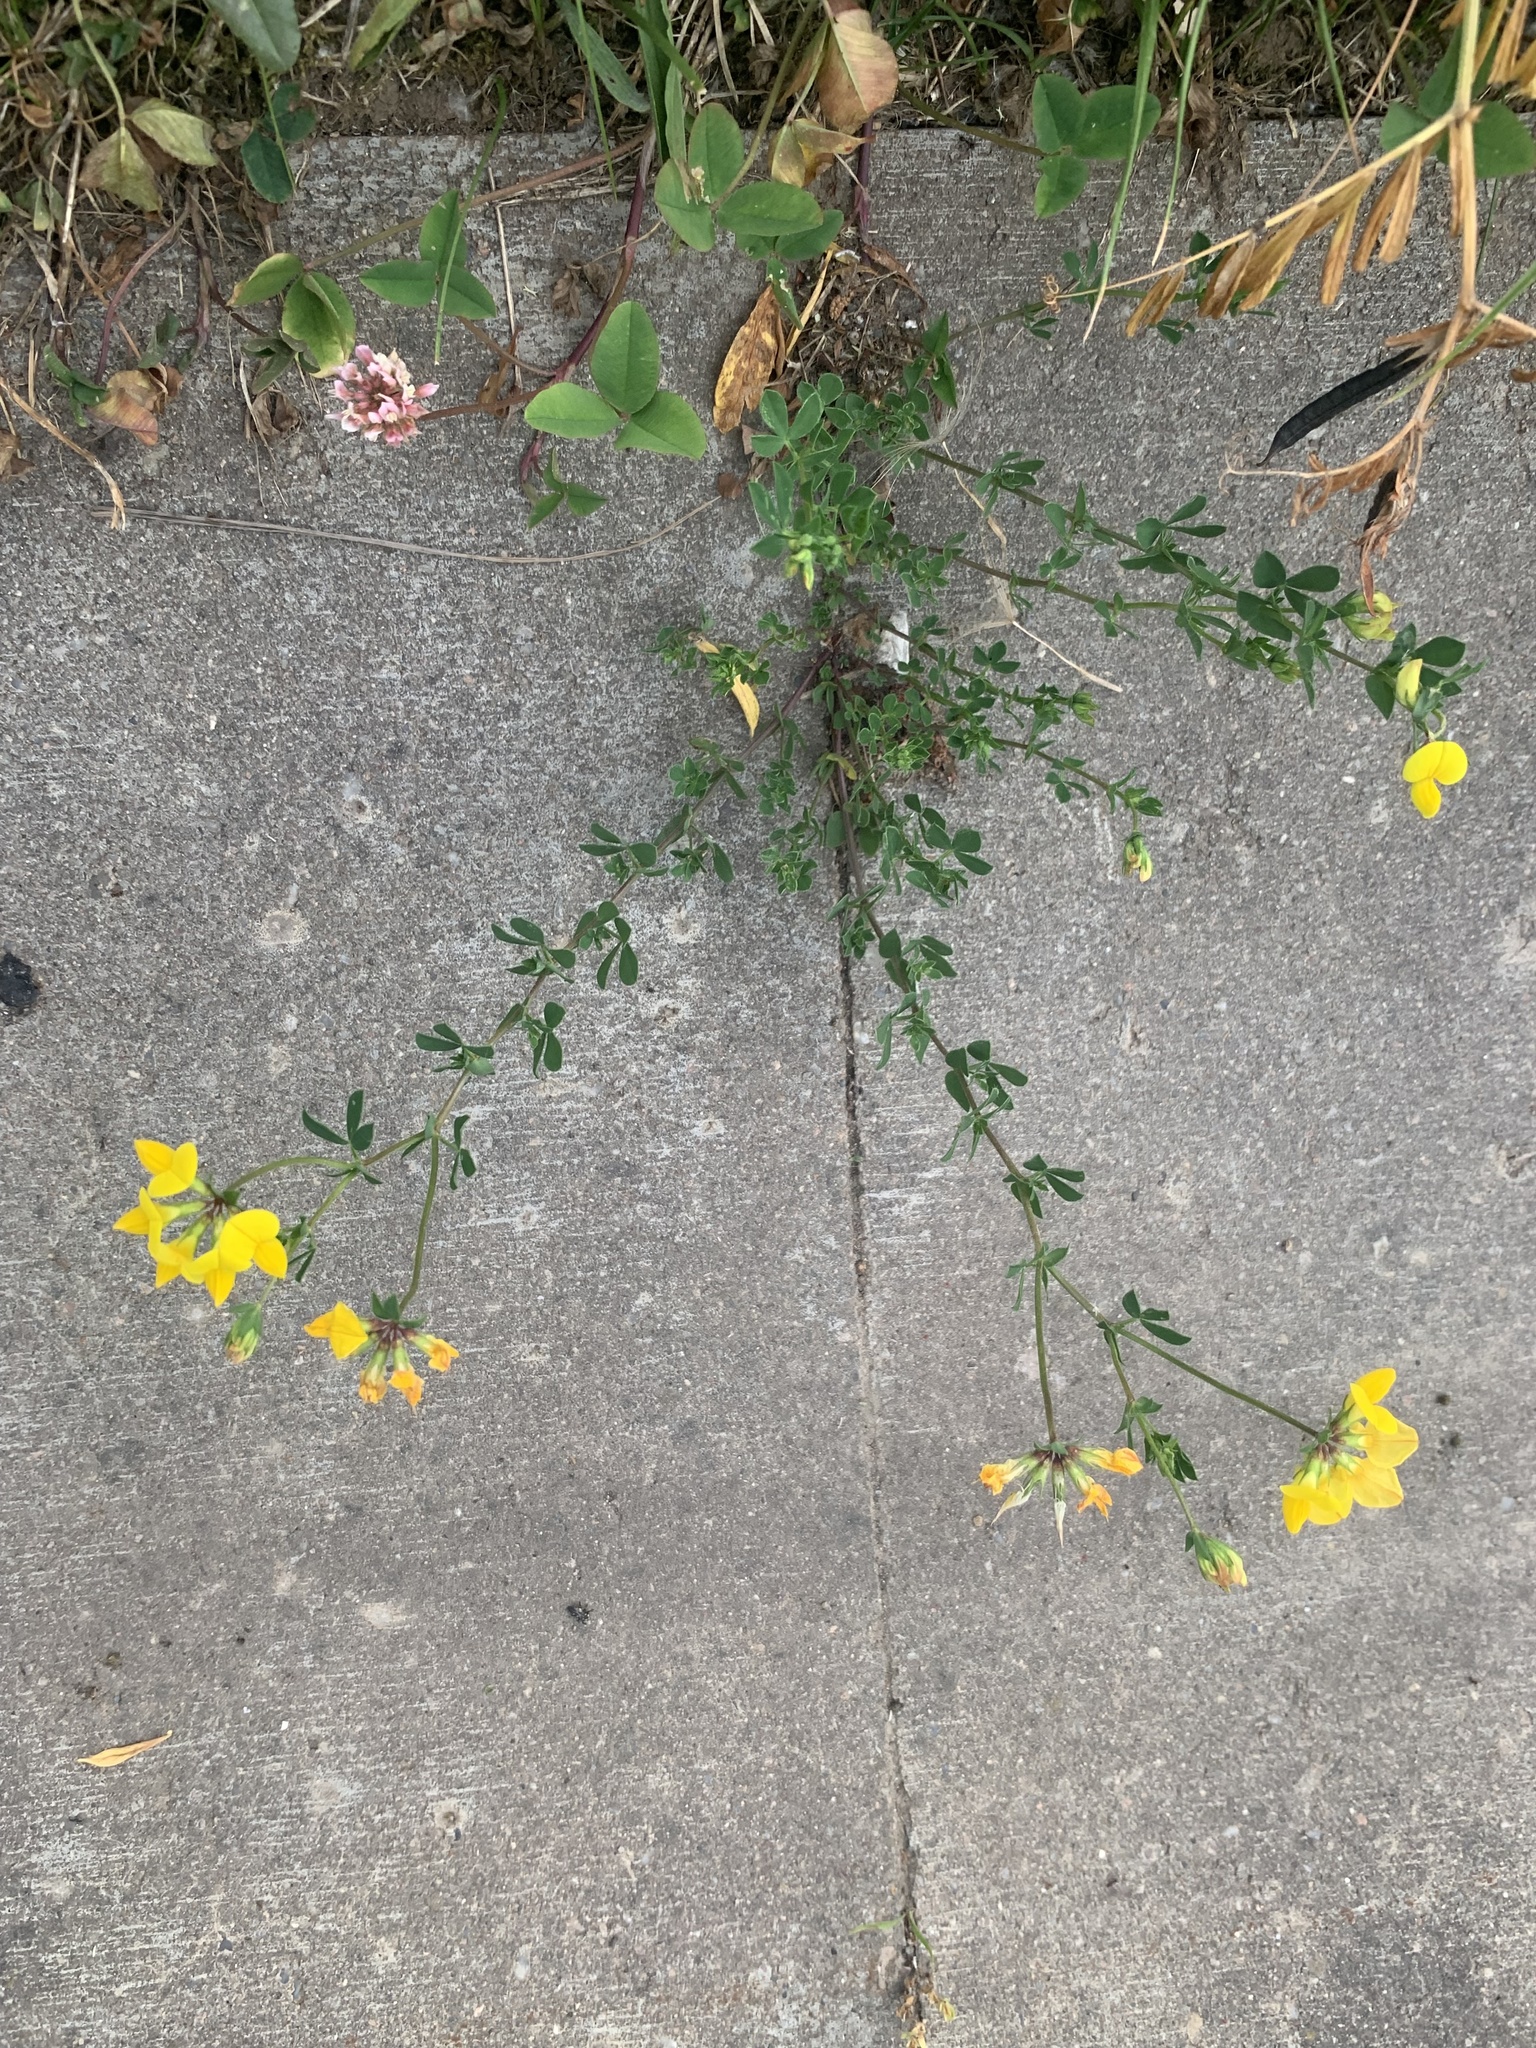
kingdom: Plantae
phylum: Tracheophyta
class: Magnoliopsida
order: Fabales
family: Fabaceae
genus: Lotus
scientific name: Lotus corniculatus
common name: Common bird's-foot-trefoil
